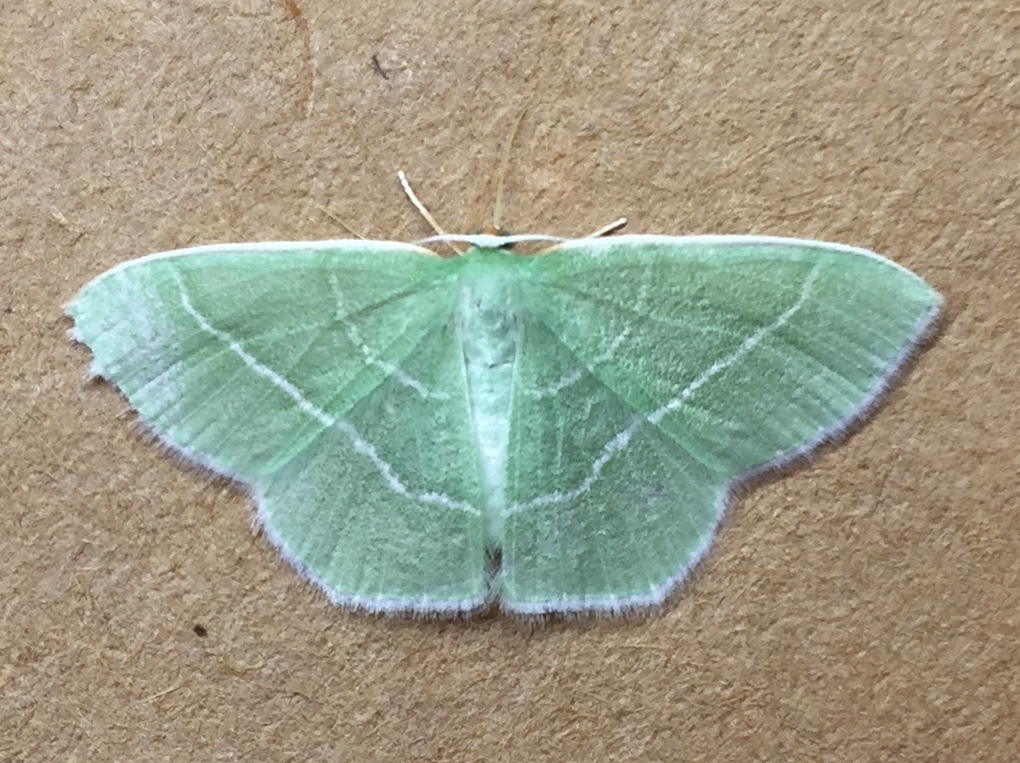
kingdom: Animalia
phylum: Arthropoda
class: Insecta
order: Lepidoptera
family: Geometridae
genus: Nemoria
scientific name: Nemoria tuscarora
